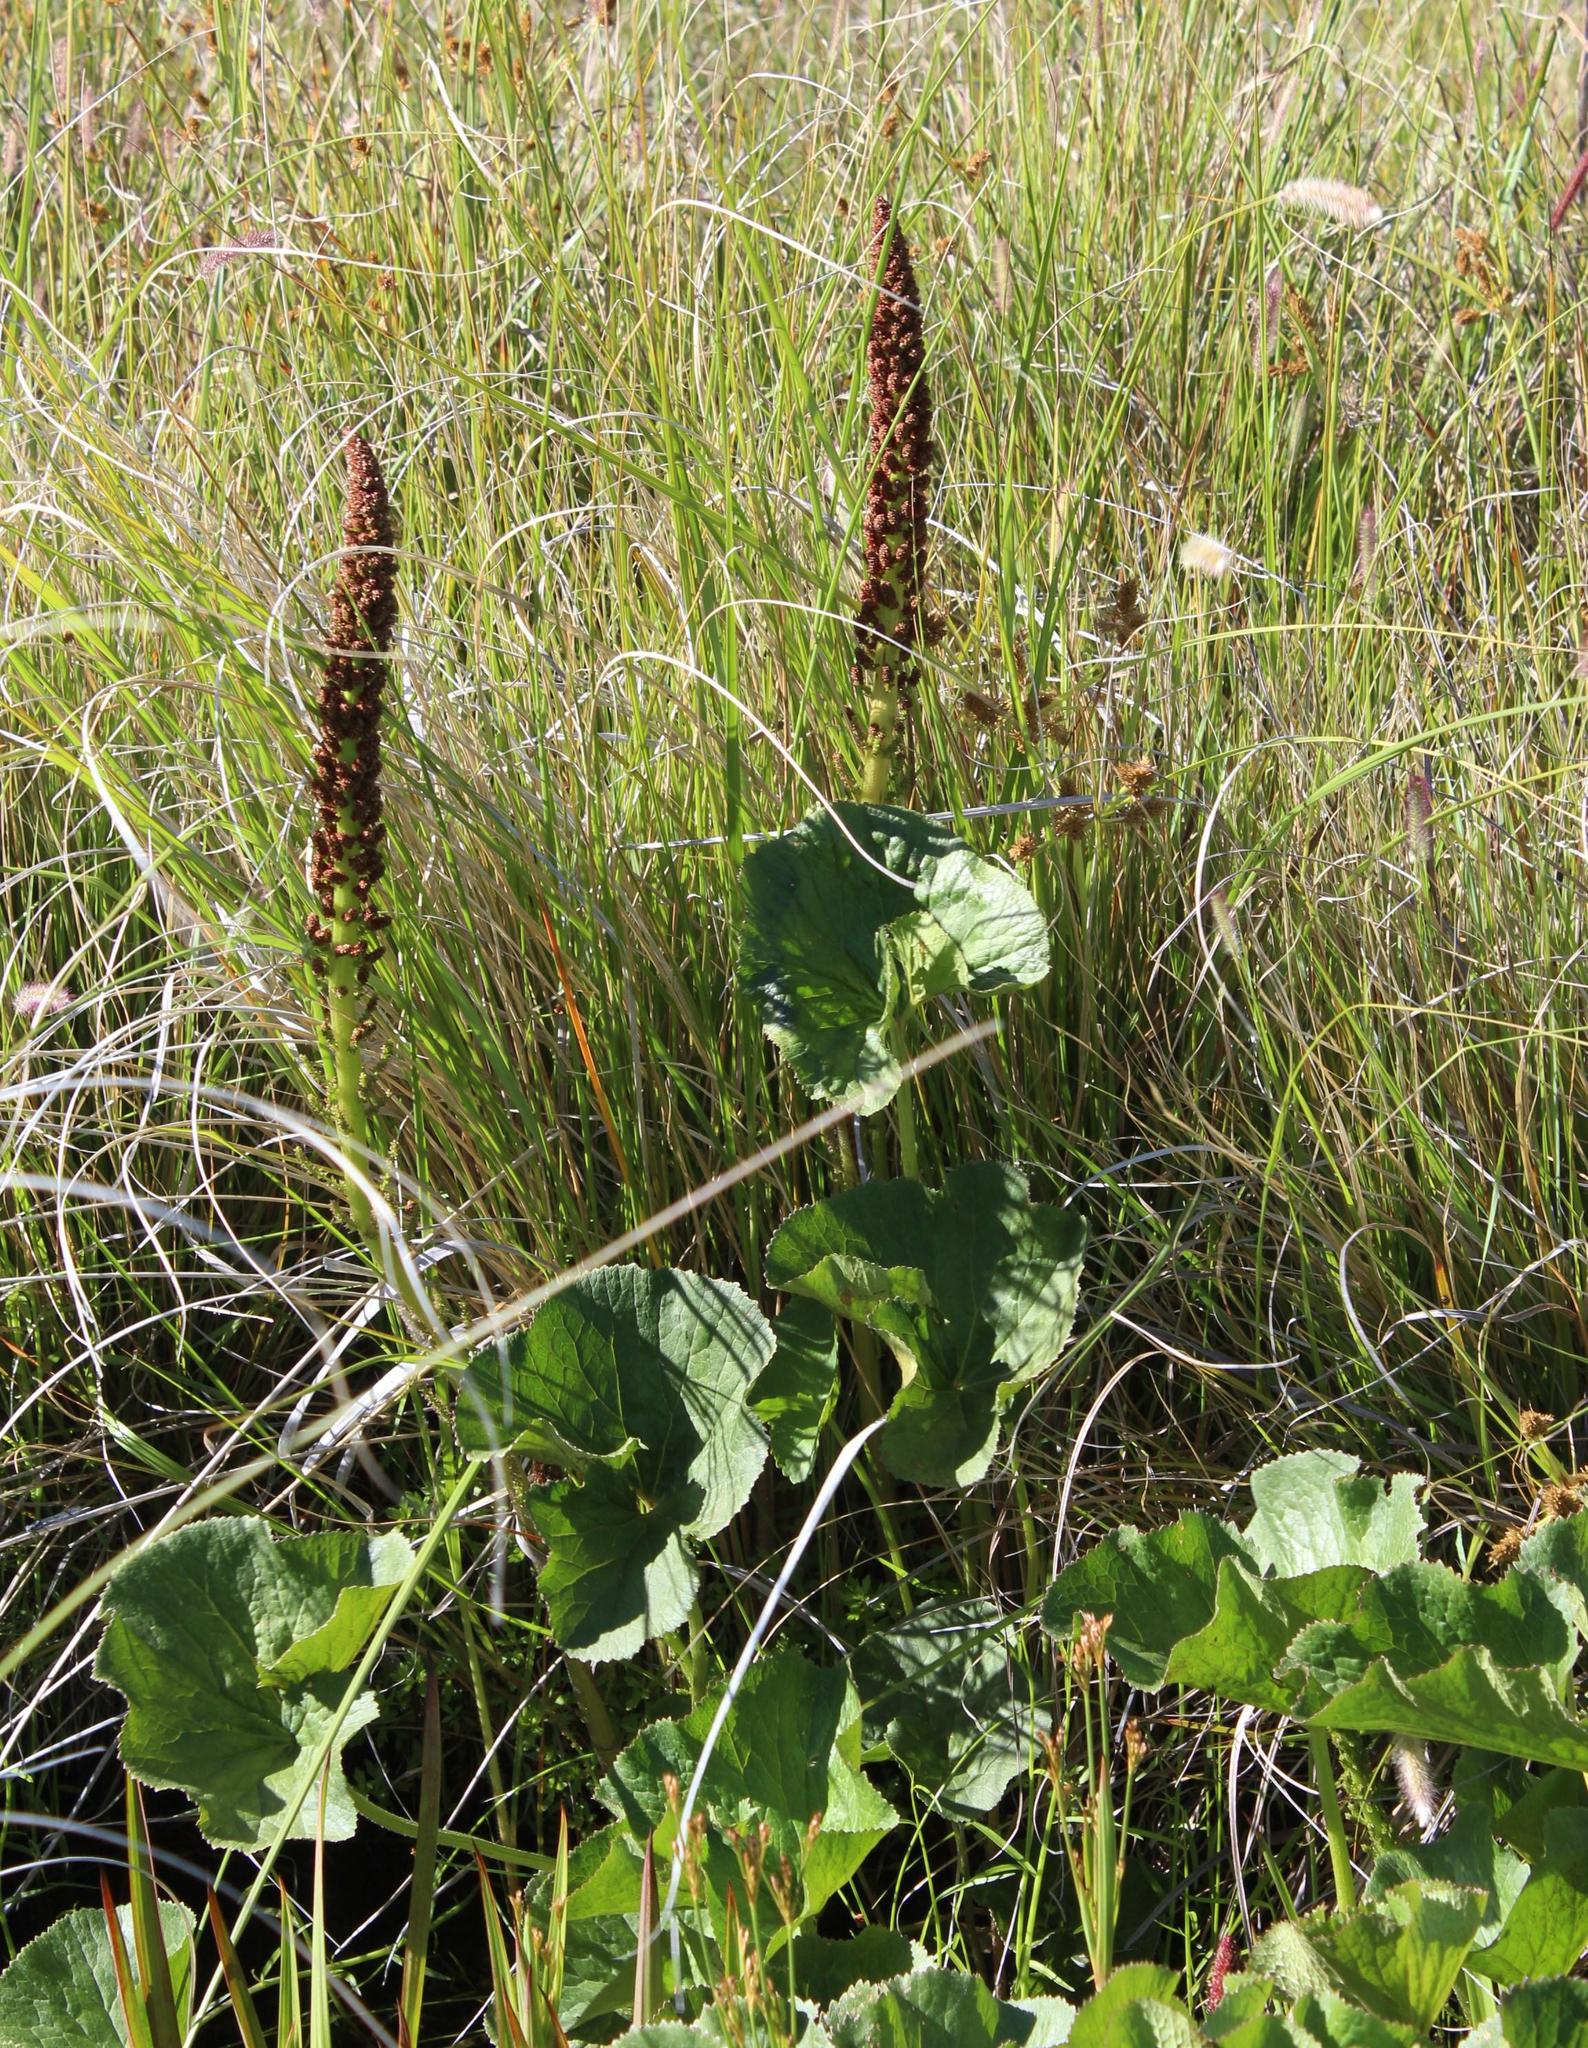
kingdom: Plantae
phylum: Tracheophyta
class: Magnoliopsida
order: Gunnerales
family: Gunneraceae
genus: Gunnera
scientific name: Gunnera perpensa
